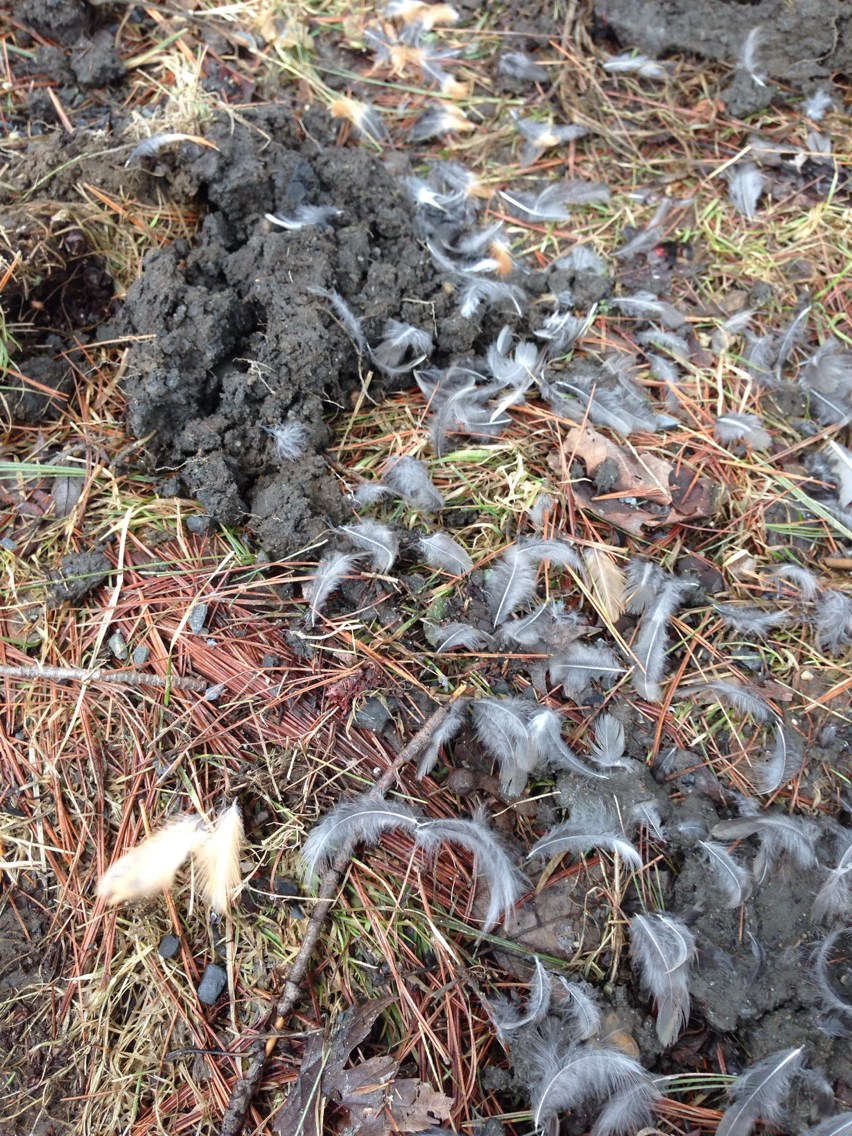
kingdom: Animalia
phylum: Chordata
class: Aves
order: Passeriformes
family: Turdidae
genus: Turdus
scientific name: Turdus migratorius
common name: American robin
